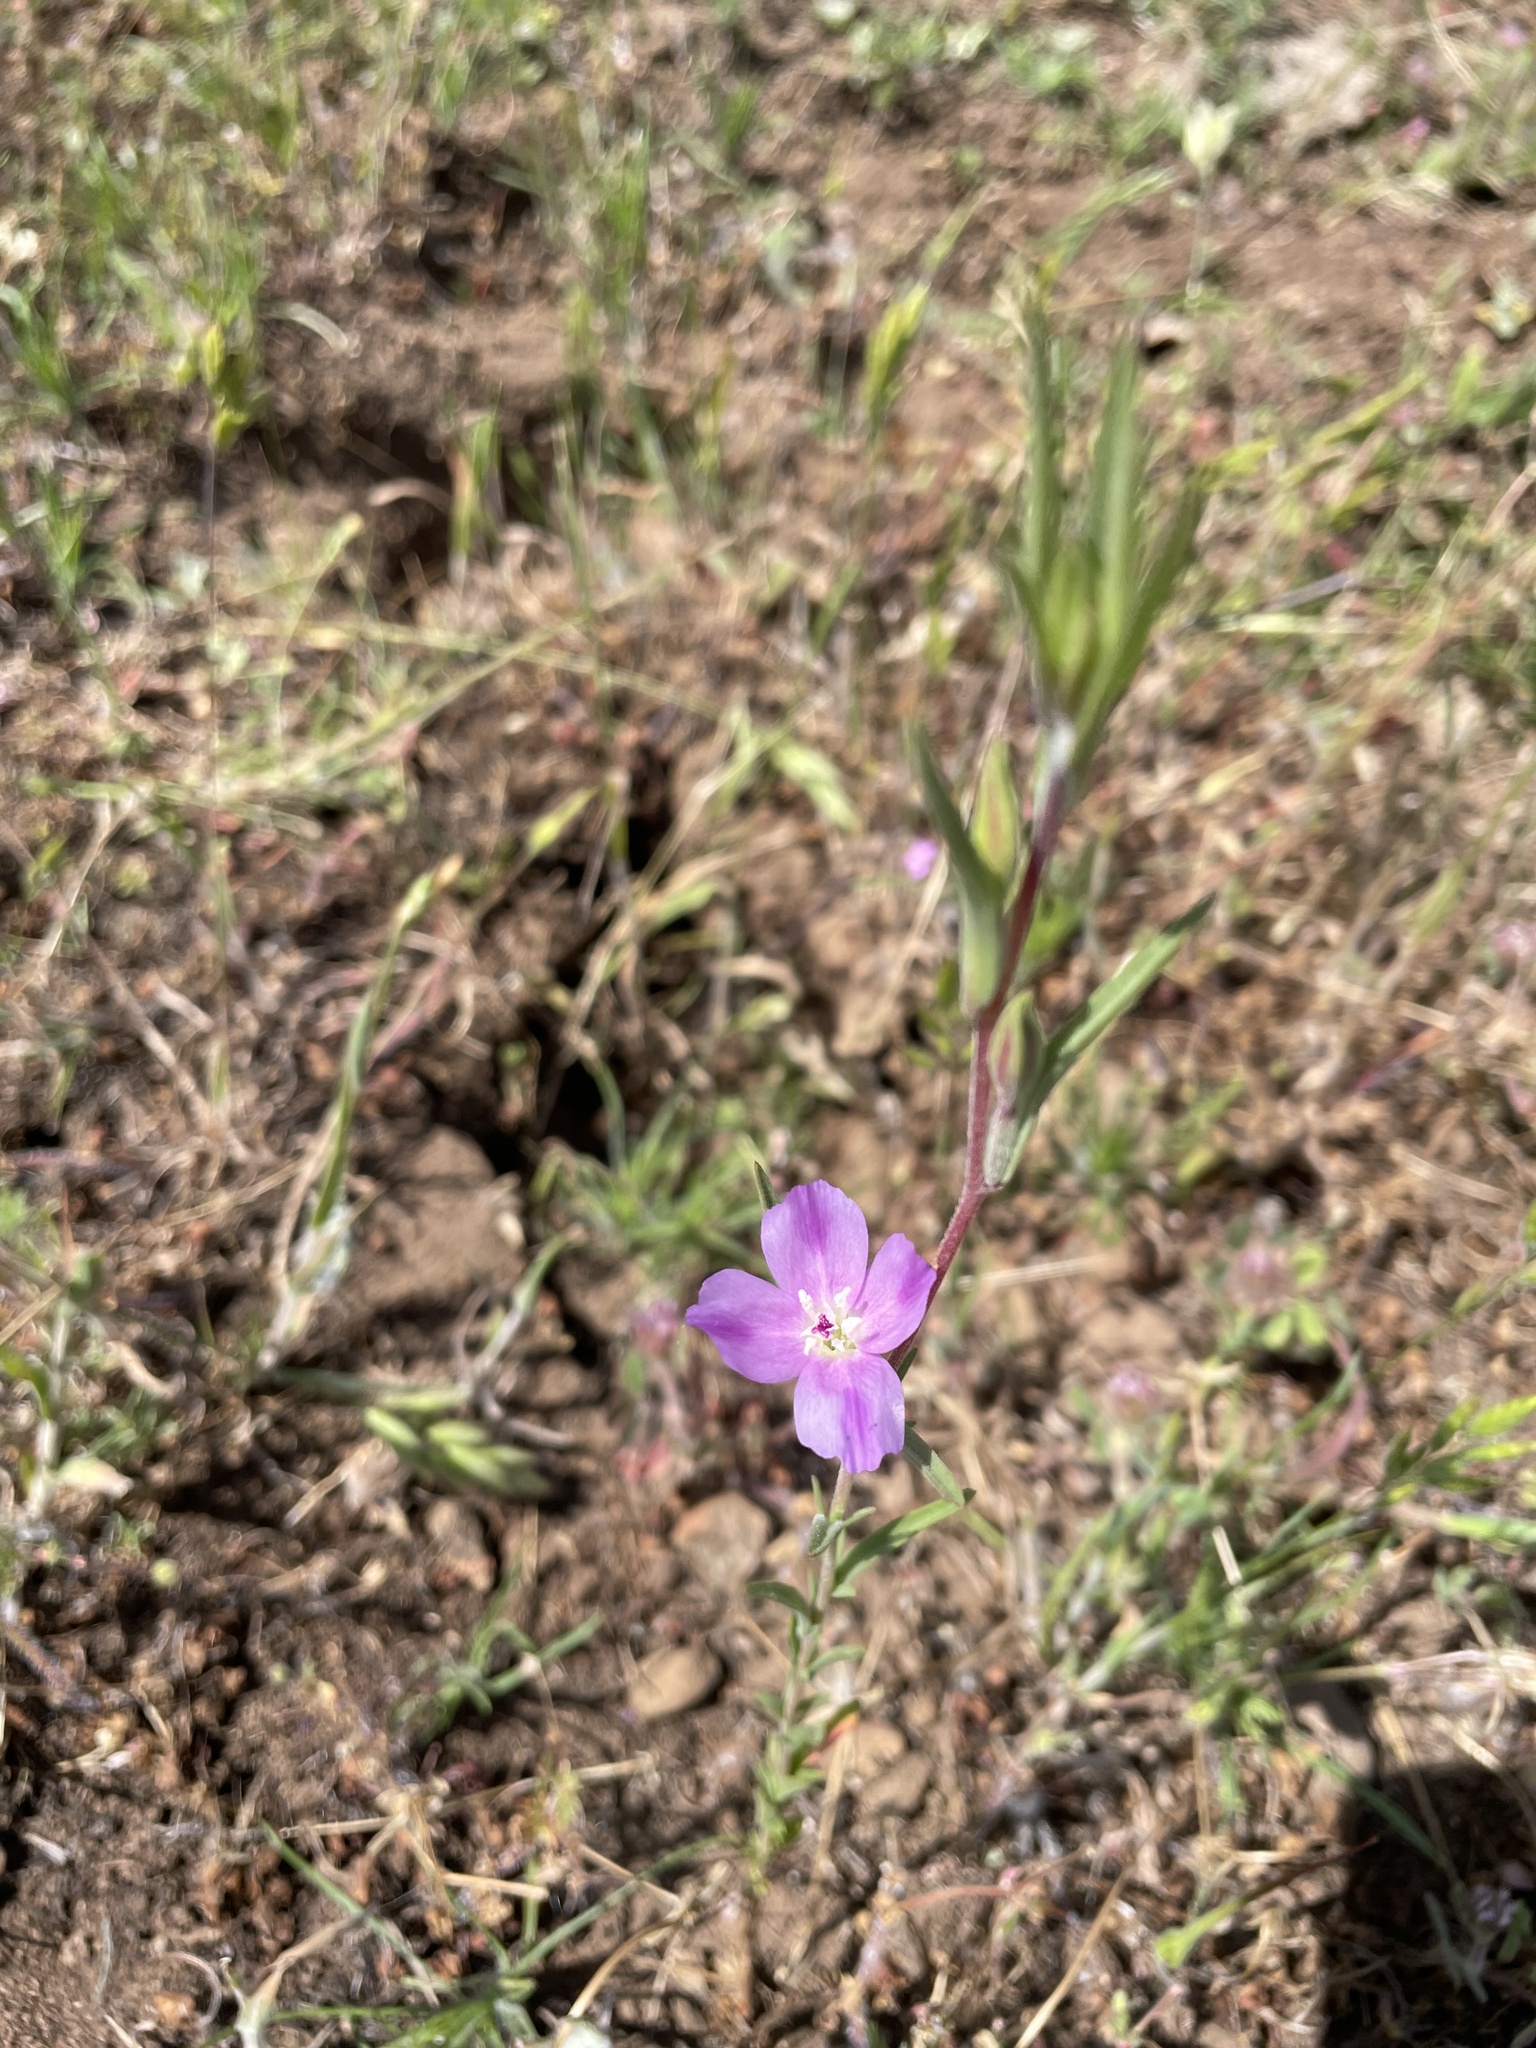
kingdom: Plantae
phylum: Tracheophyta
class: Magnoliopsida
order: Myrtales
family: Onagraceae
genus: Clarkia
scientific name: Clarkia purpurea
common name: Purple clarkia
